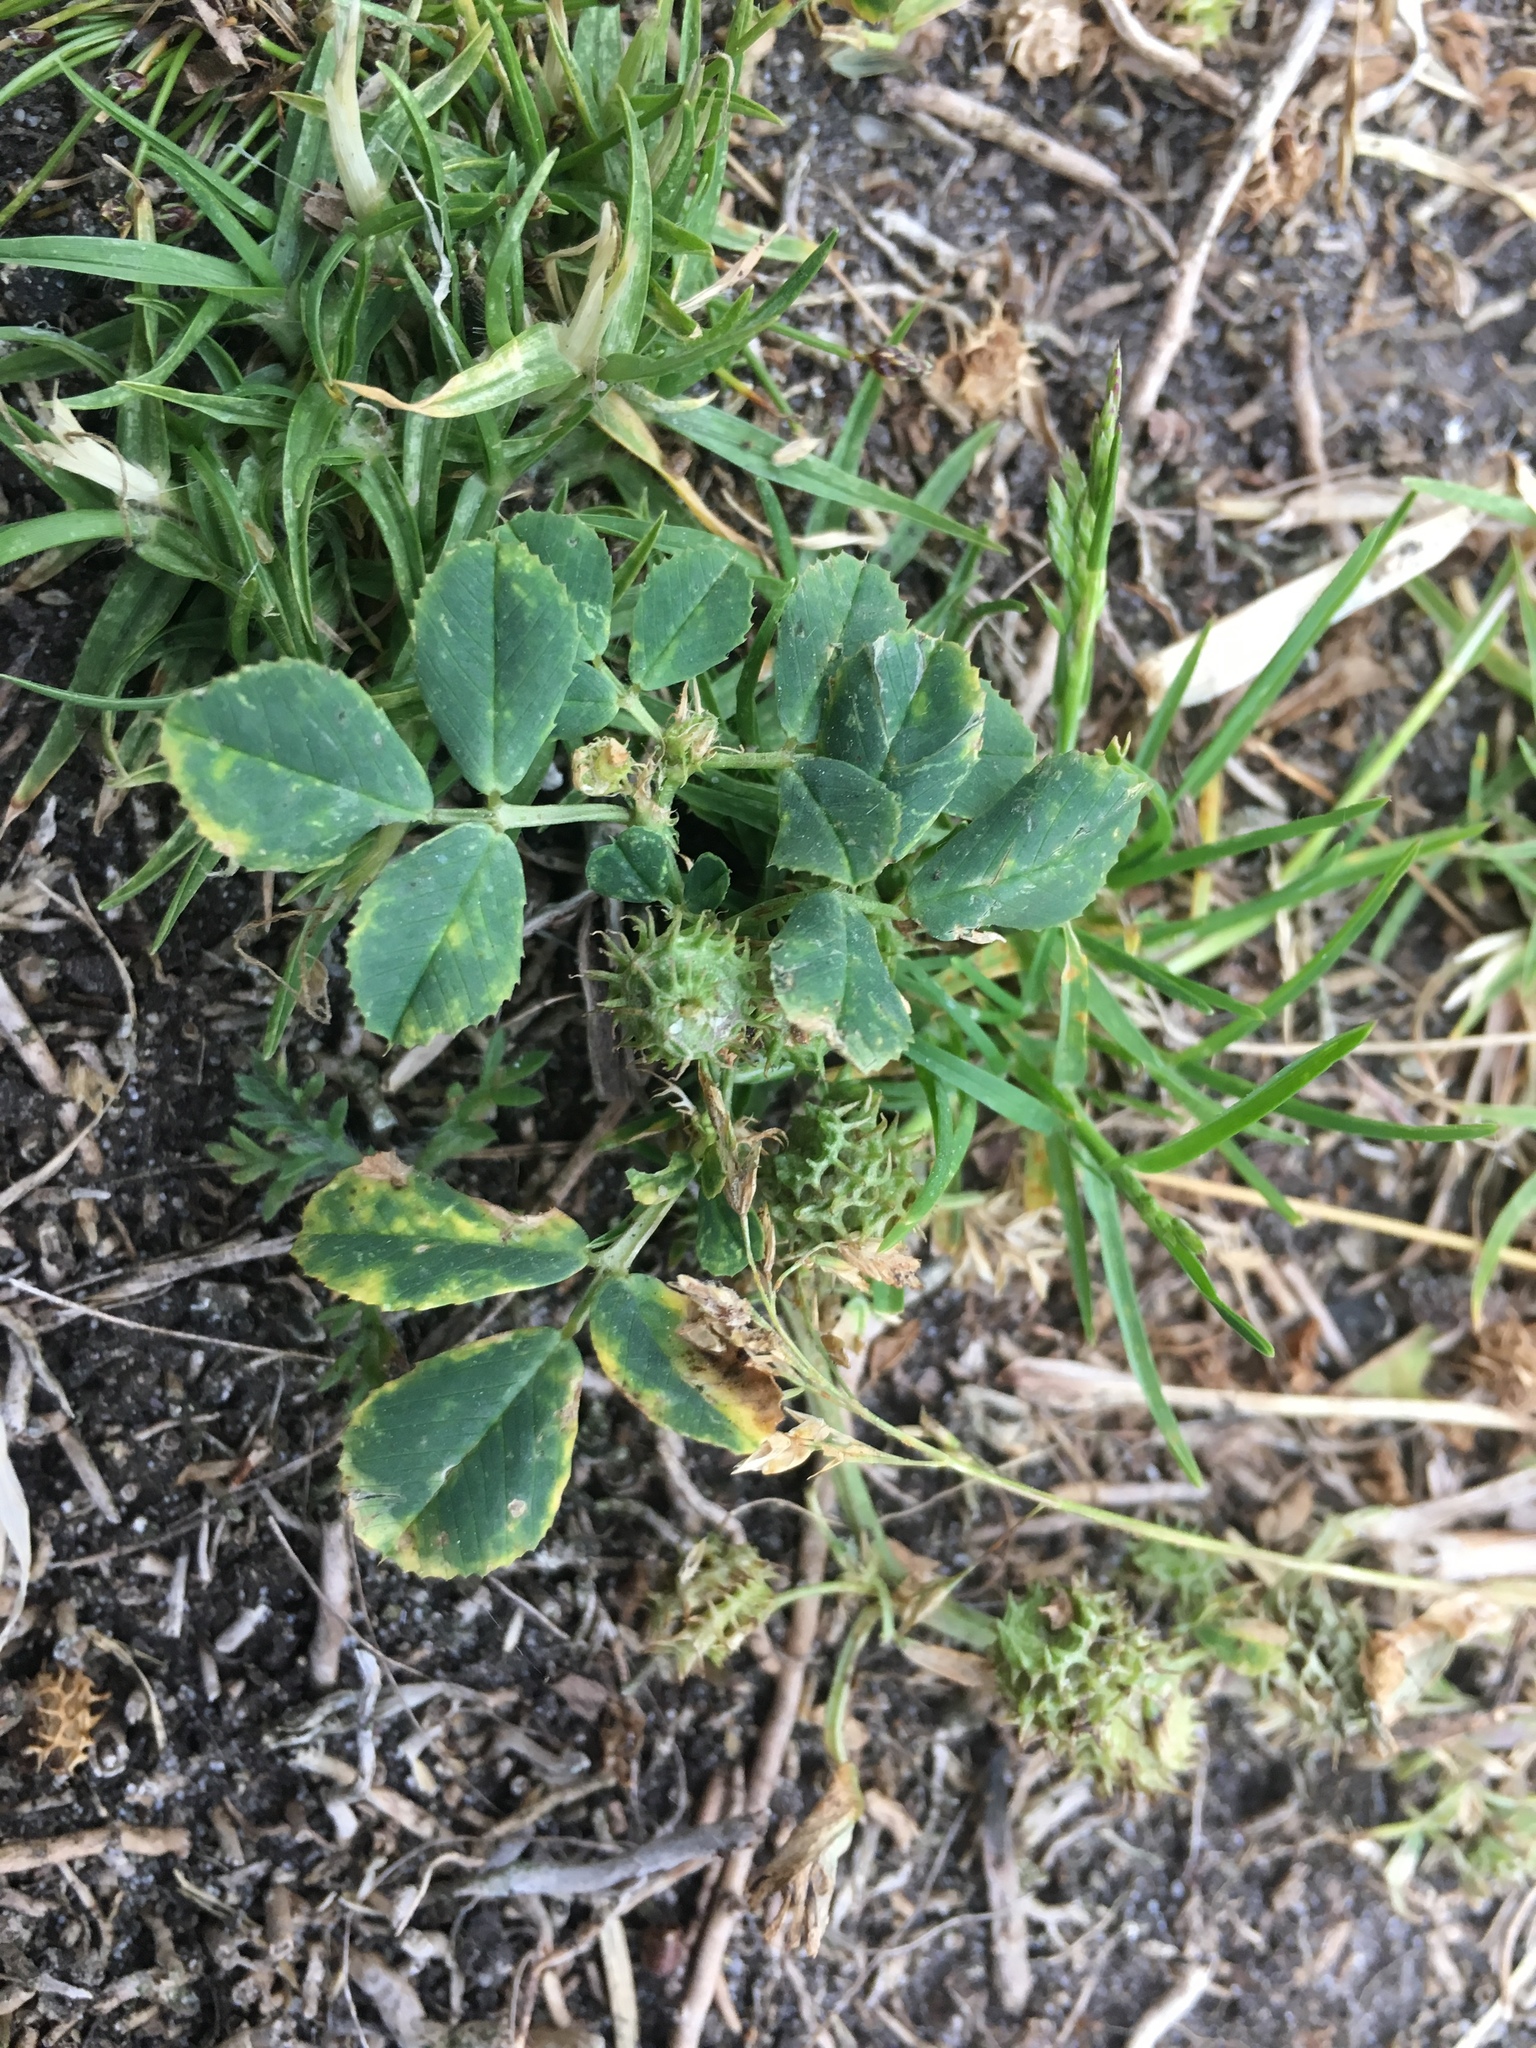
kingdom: Plantae
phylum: Tracheophyta
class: Magnoliopsida
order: Fabales
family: Fabaceae
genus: Medicago
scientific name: Medicago polymorpha
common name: Burclover
